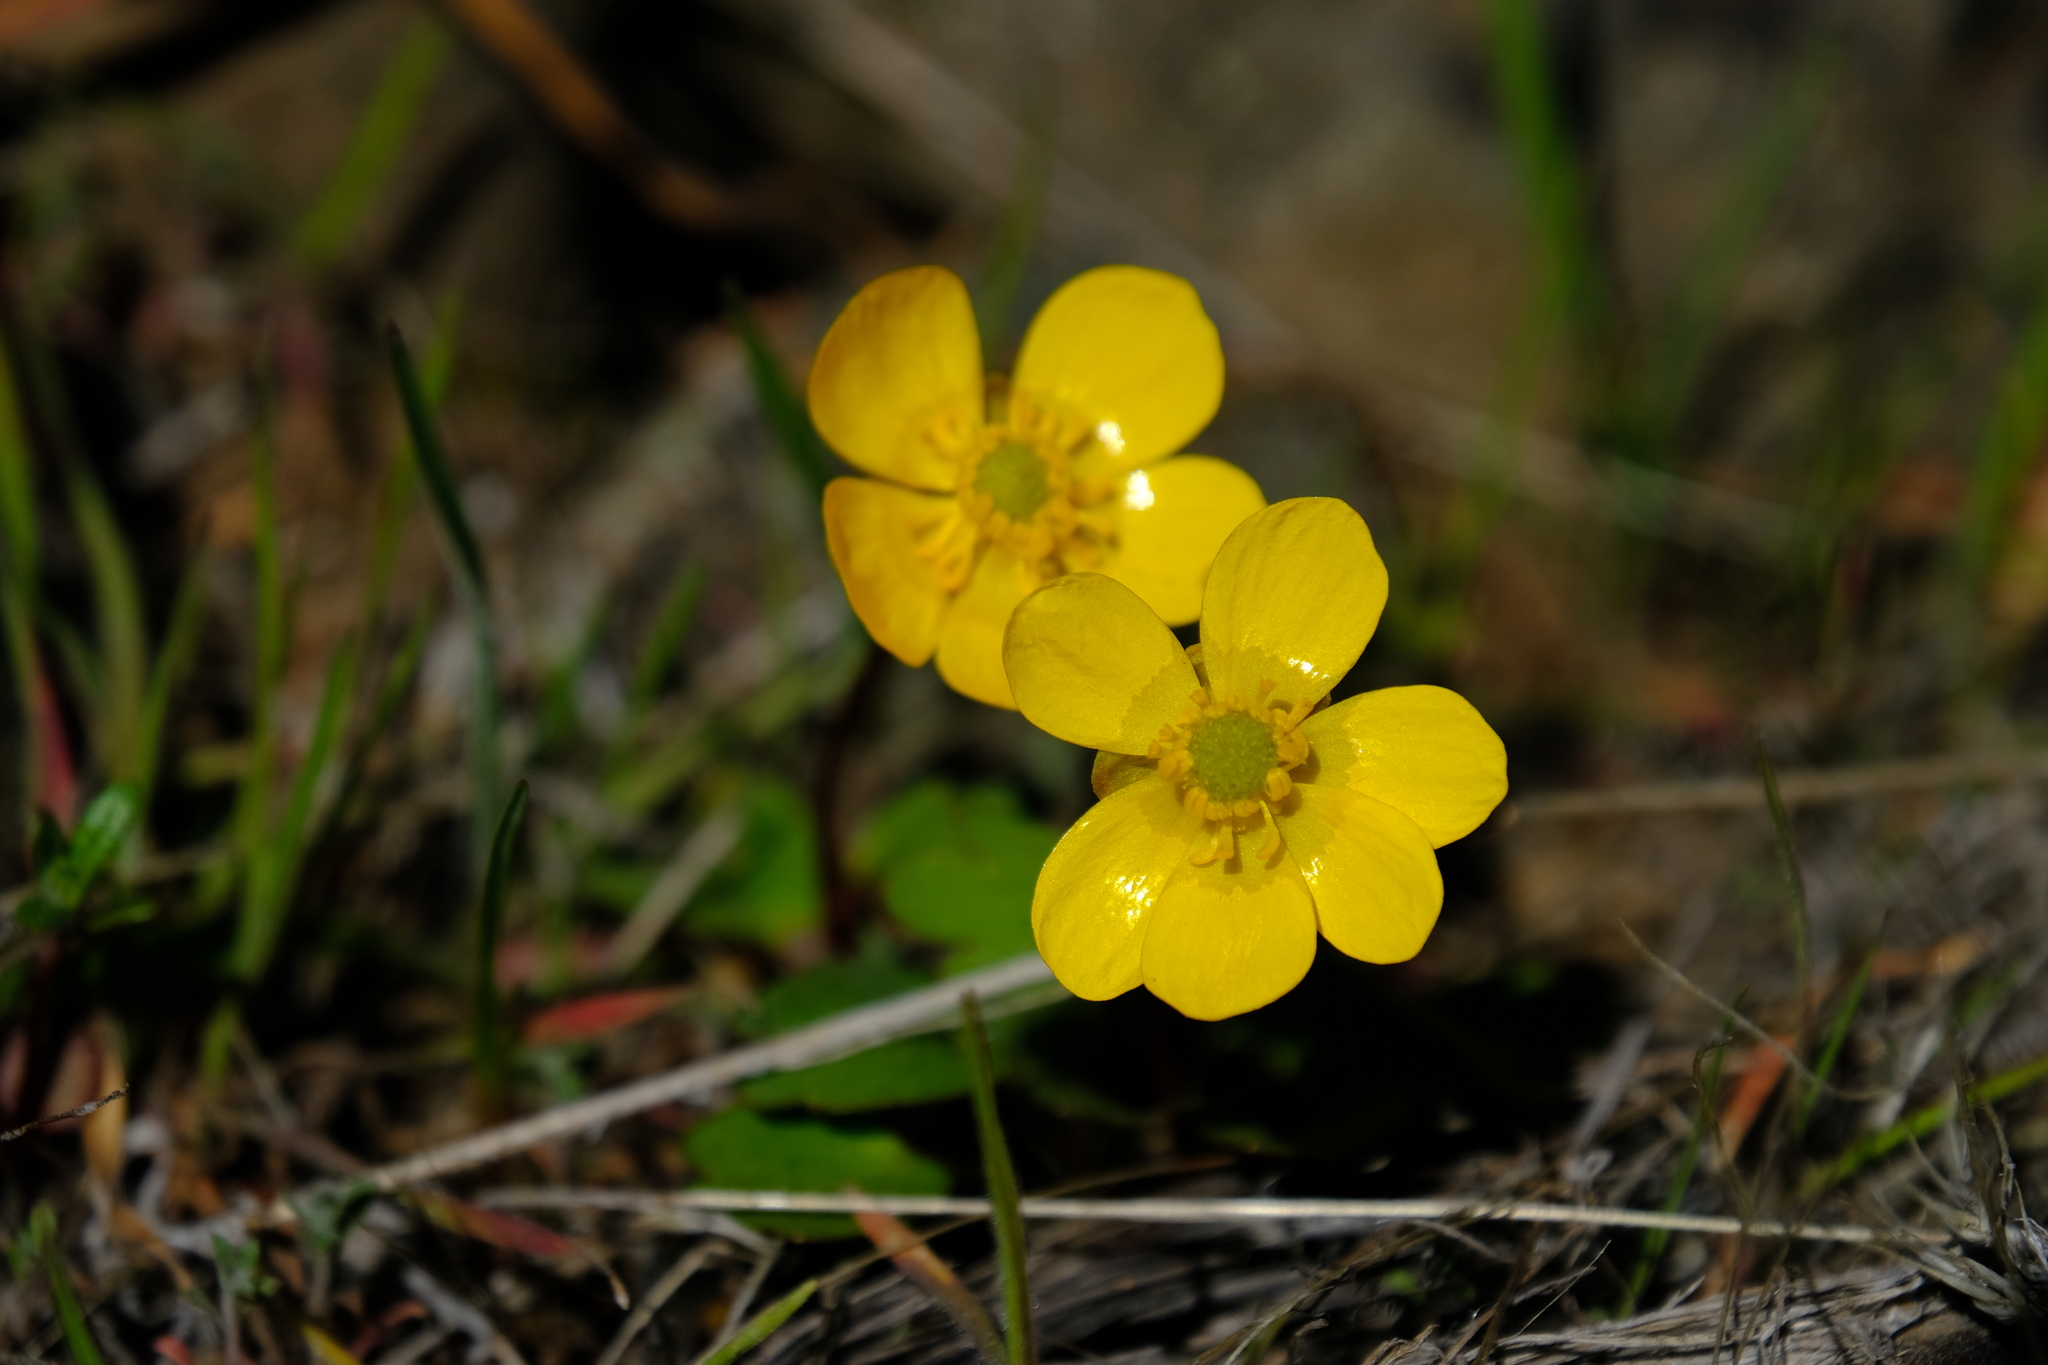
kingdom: Plantae
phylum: Tracheophyta
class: Magnoliopsida
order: Ranunculales
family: Ranunculaceae
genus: Ranunculus
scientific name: Ranunculus glaberrimus
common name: Sagebrush buttercup
